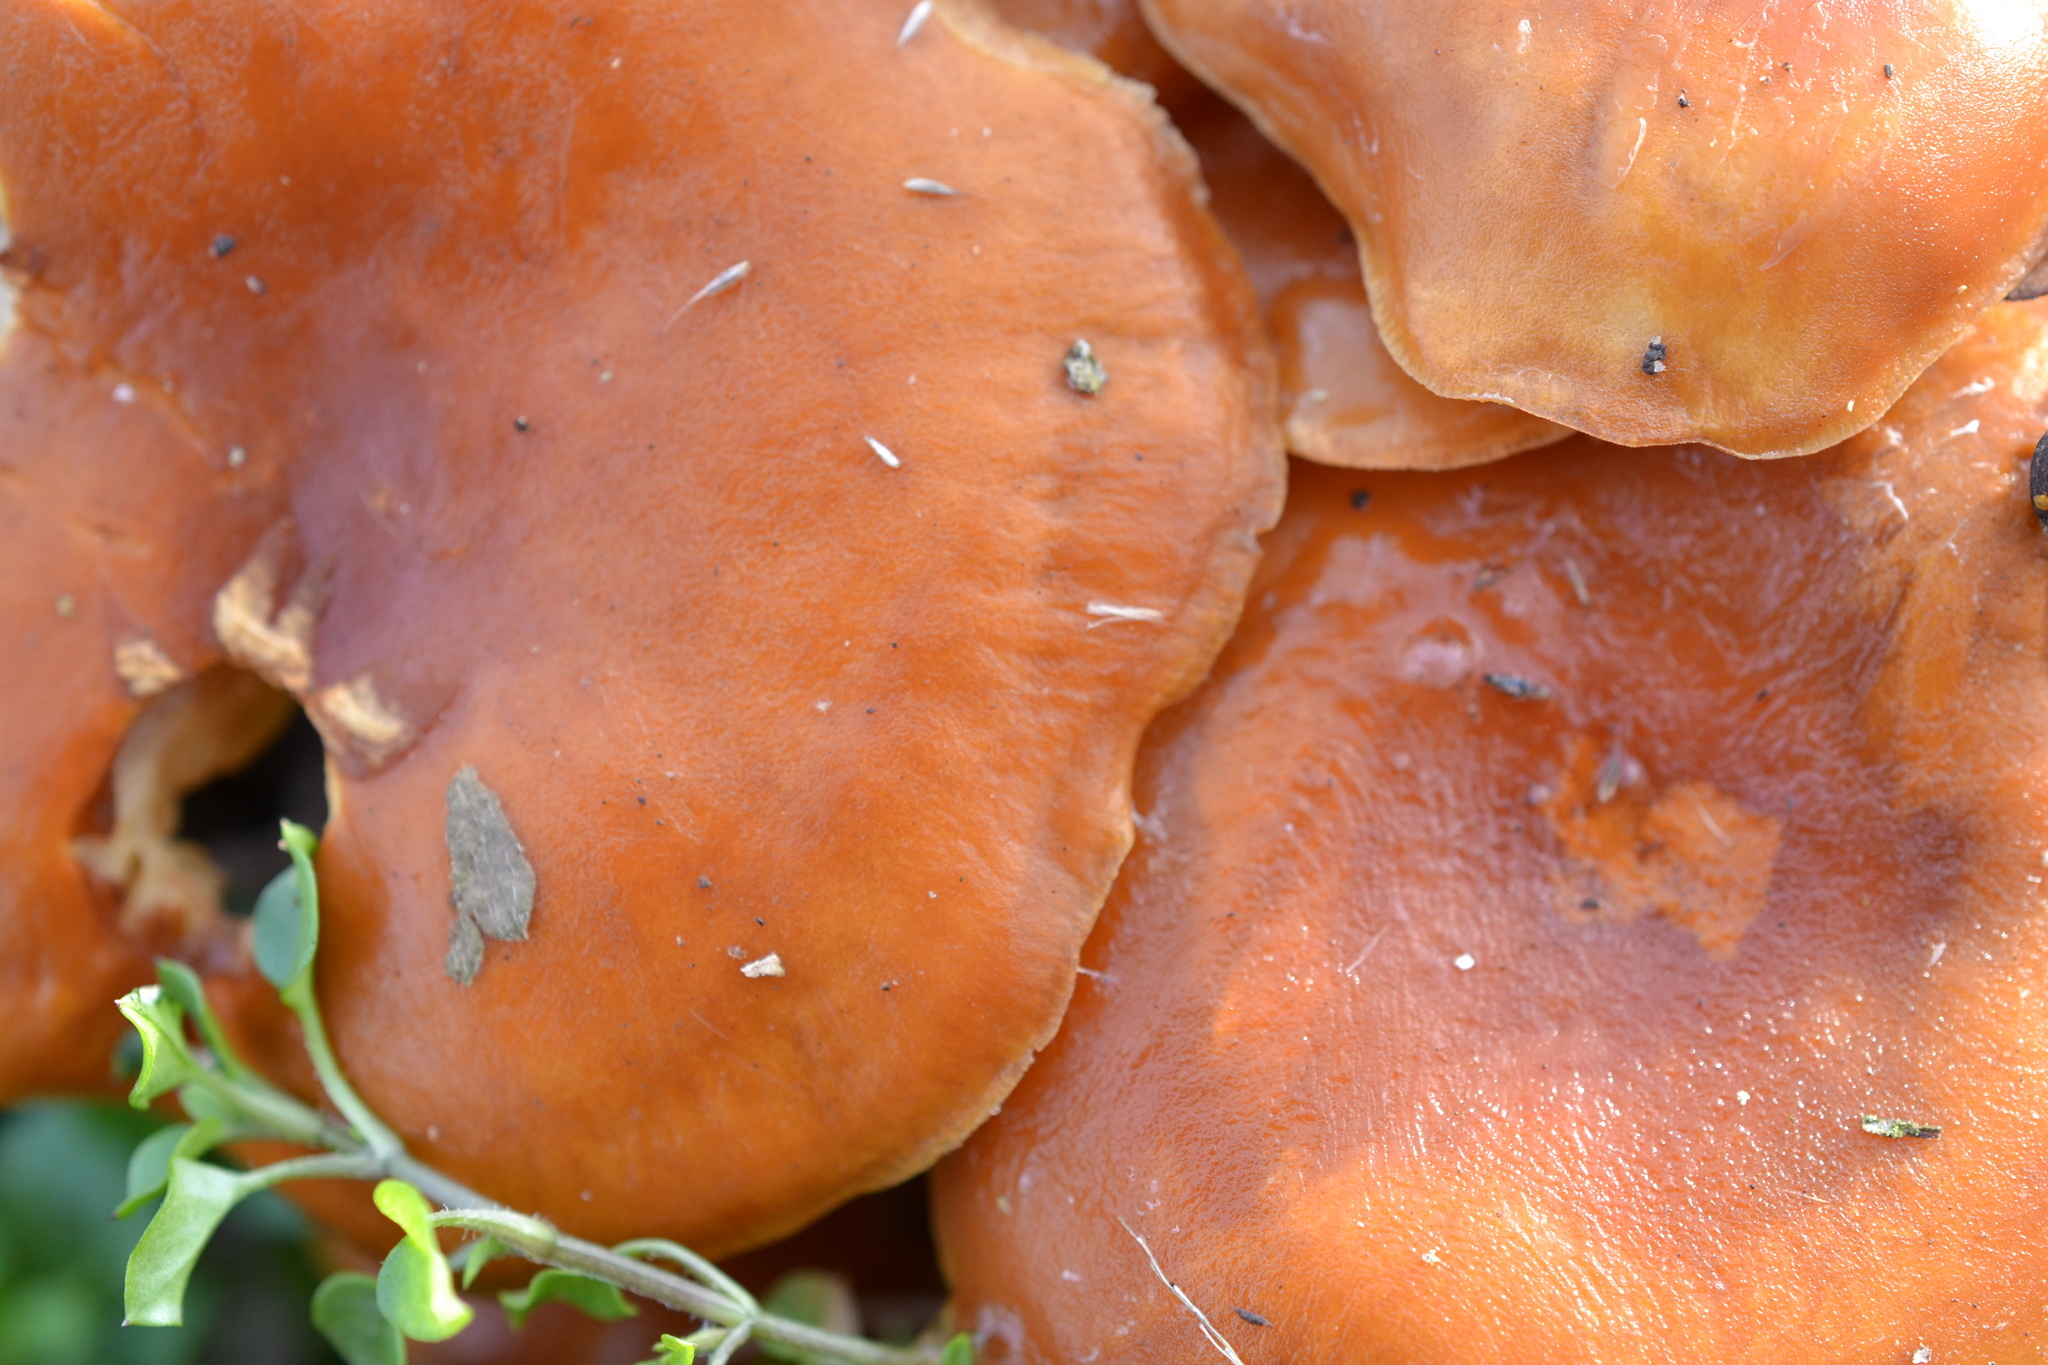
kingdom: Fungi
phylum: Basidiomycota
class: Agaricomycetes
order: Agaricales
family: Omphalotaceae
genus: Omphalotus
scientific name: Omphalotus illudens
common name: Jack o lantern
